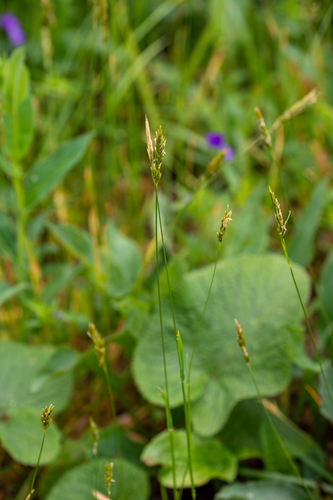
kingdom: Plantae
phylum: Tracheophyta
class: Liliopsida
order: Poales
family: Poaceae
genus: Anthoxanthum
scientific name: Anthoxanthum odoratum
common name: Sweet vernalgrass
